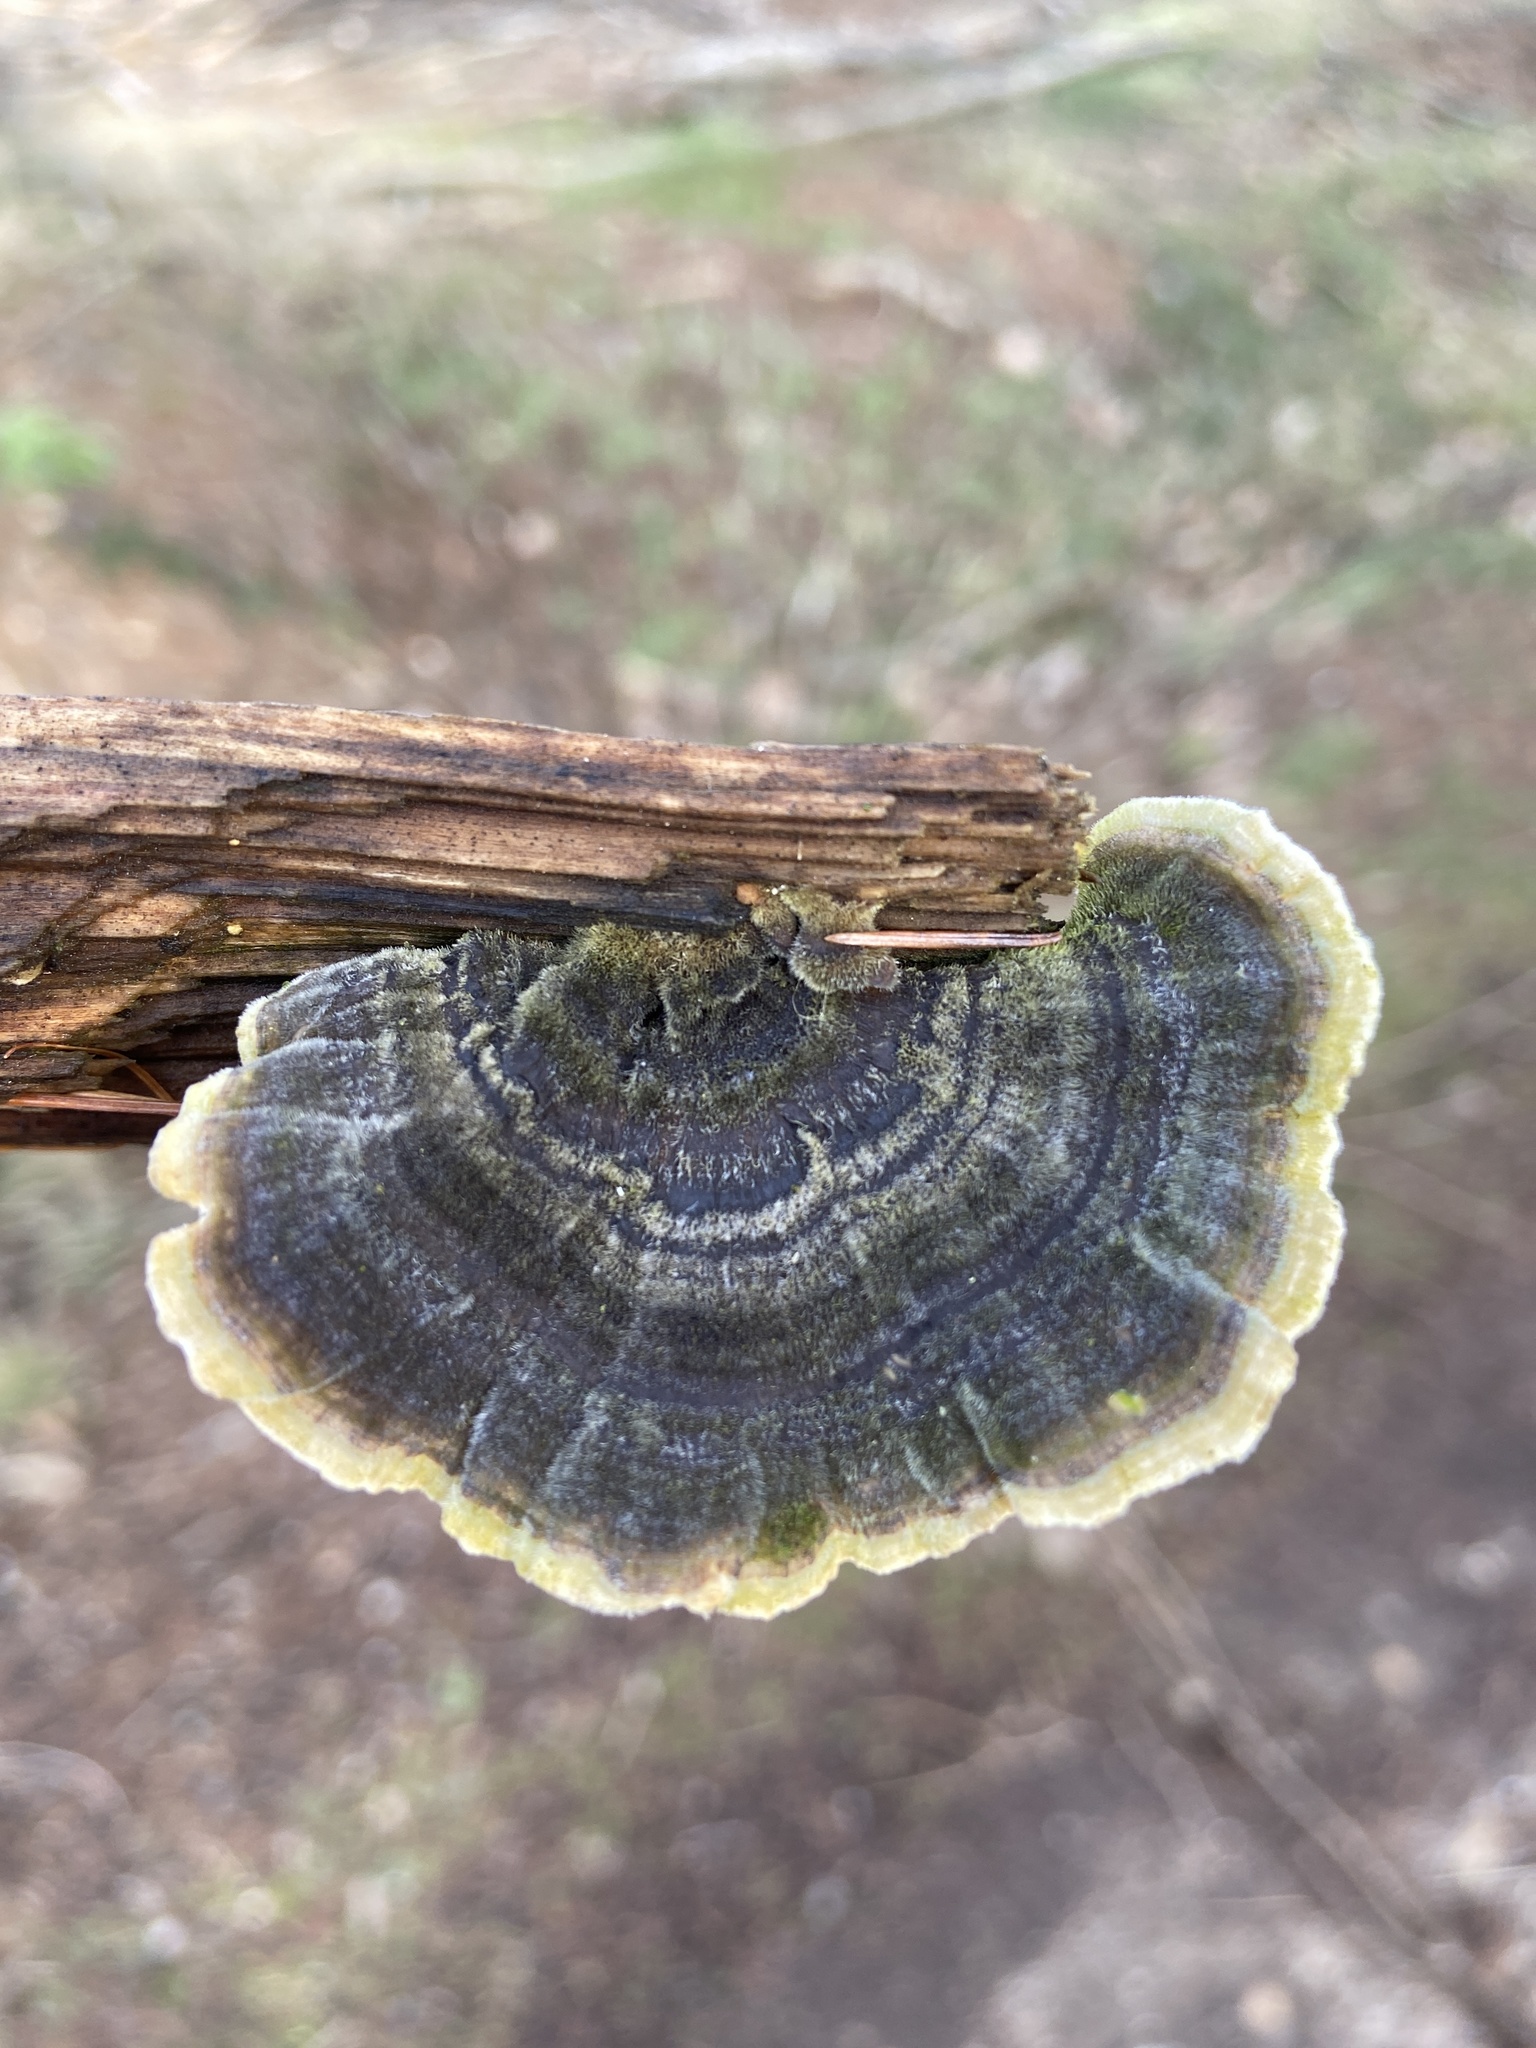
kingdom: Fungi
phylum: Basidiomycota
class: Agaricomycetes
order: Polyporales
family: Polyporaceae
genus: Trametes
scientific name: Trametes versicolor
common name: Turkeytail
